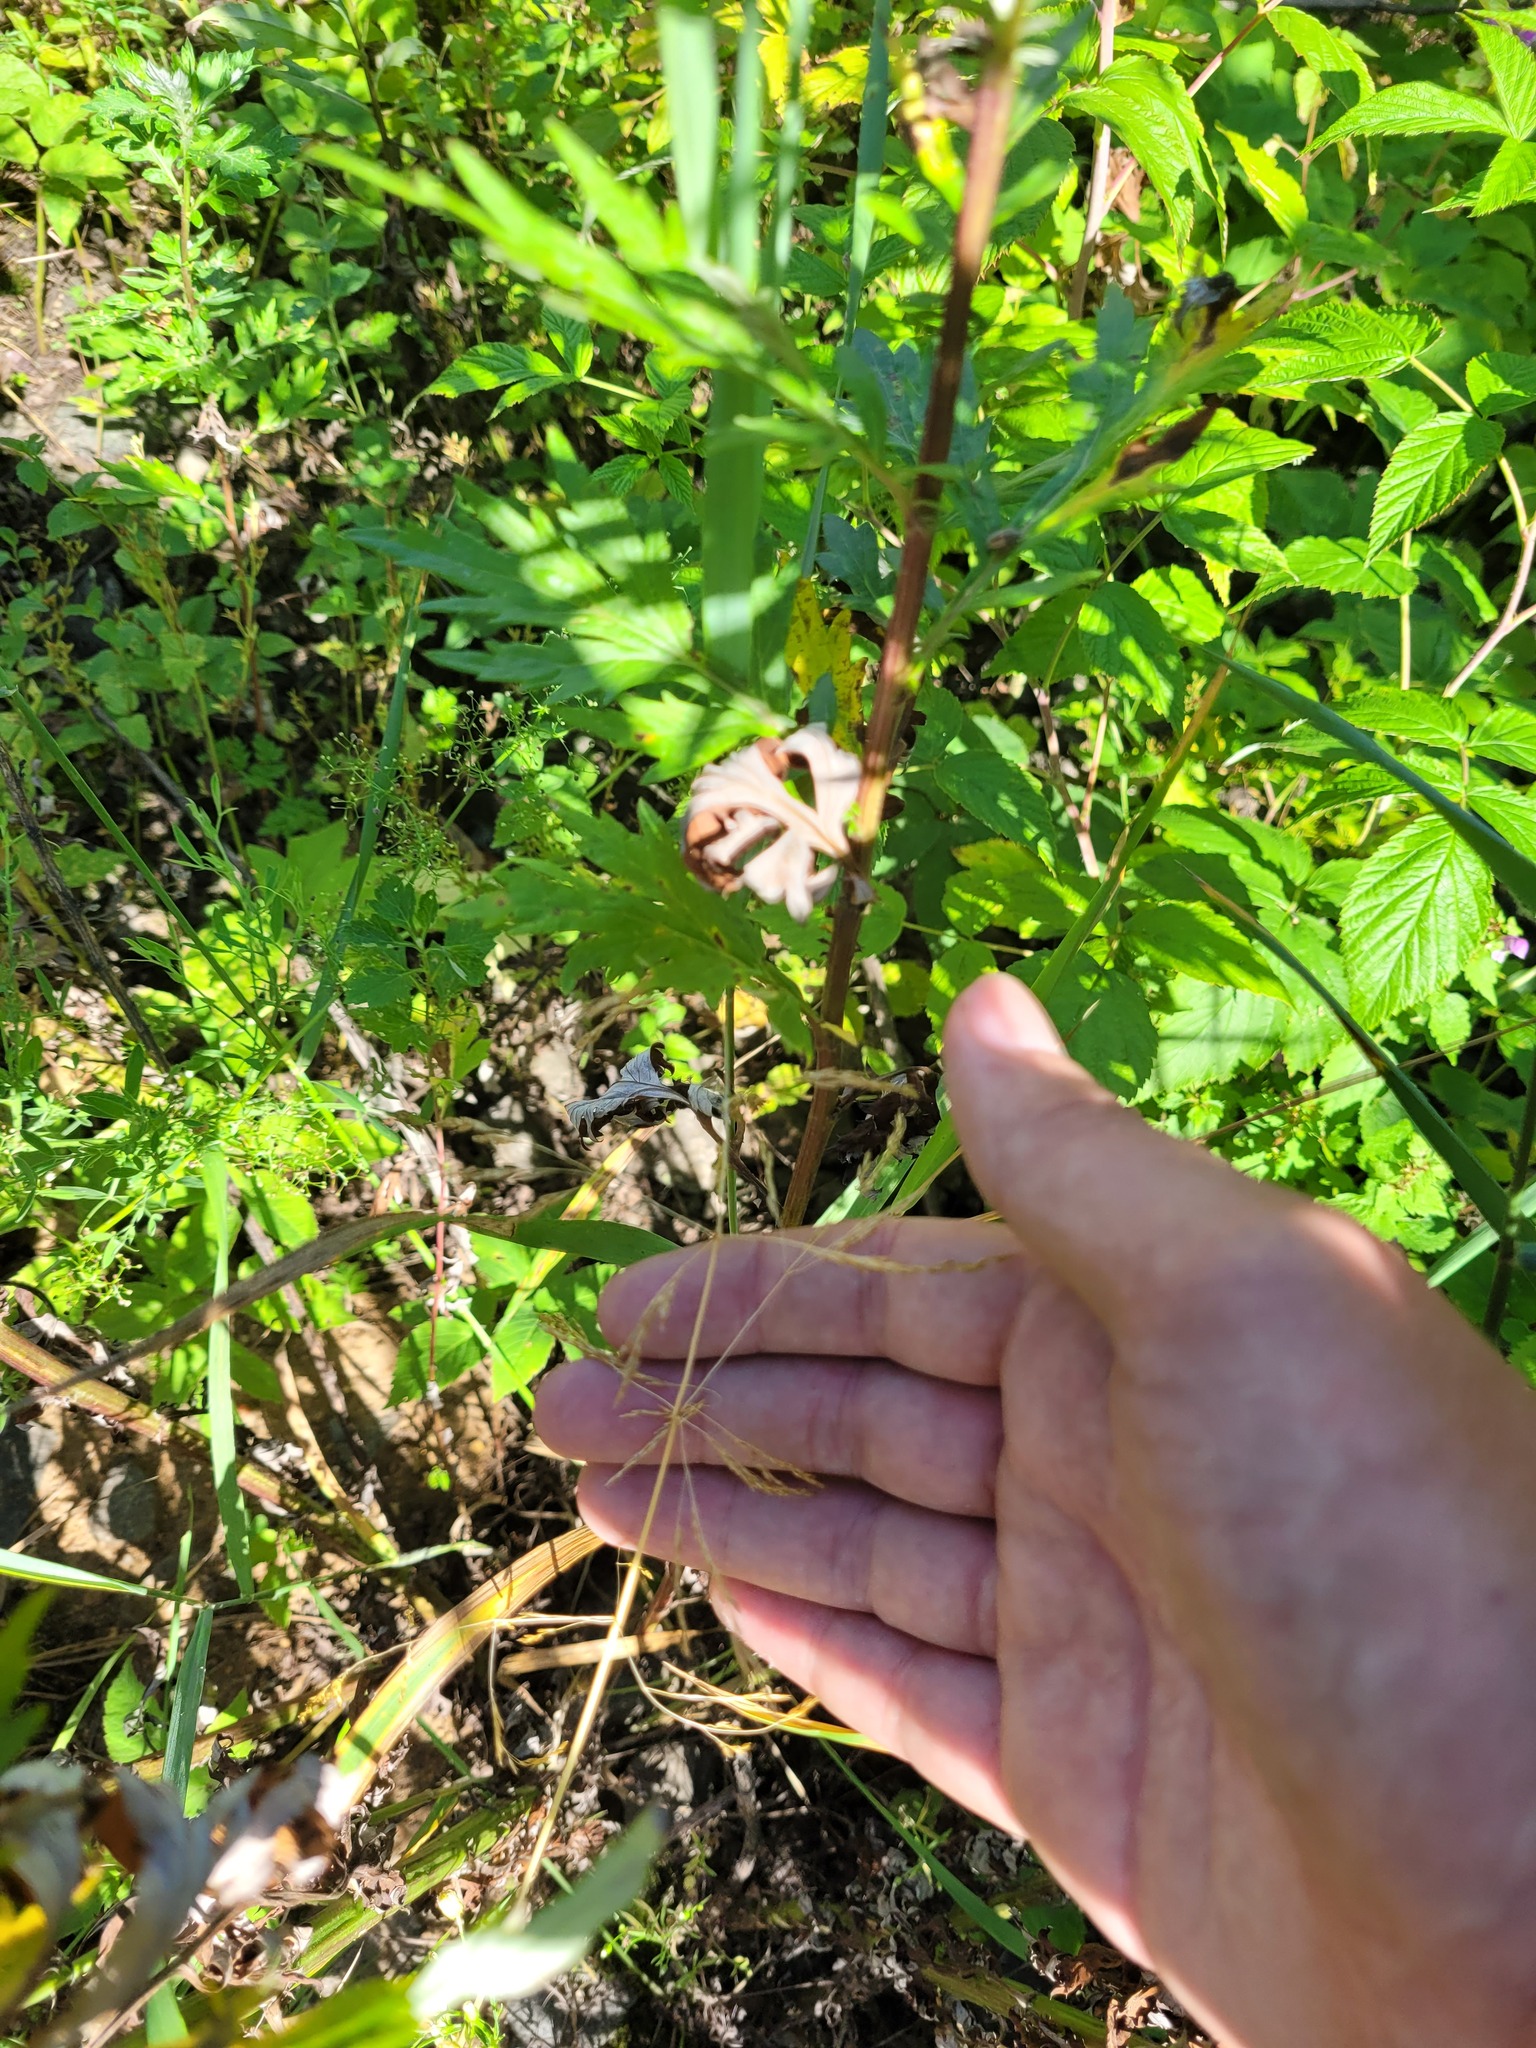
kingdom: Plantae
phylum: Tracheophyta
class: Liliopsida
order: Poales
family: Poaceae
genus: Deschampsia
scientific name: Deschampsia cespitosa
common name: Tufted hair-grass
